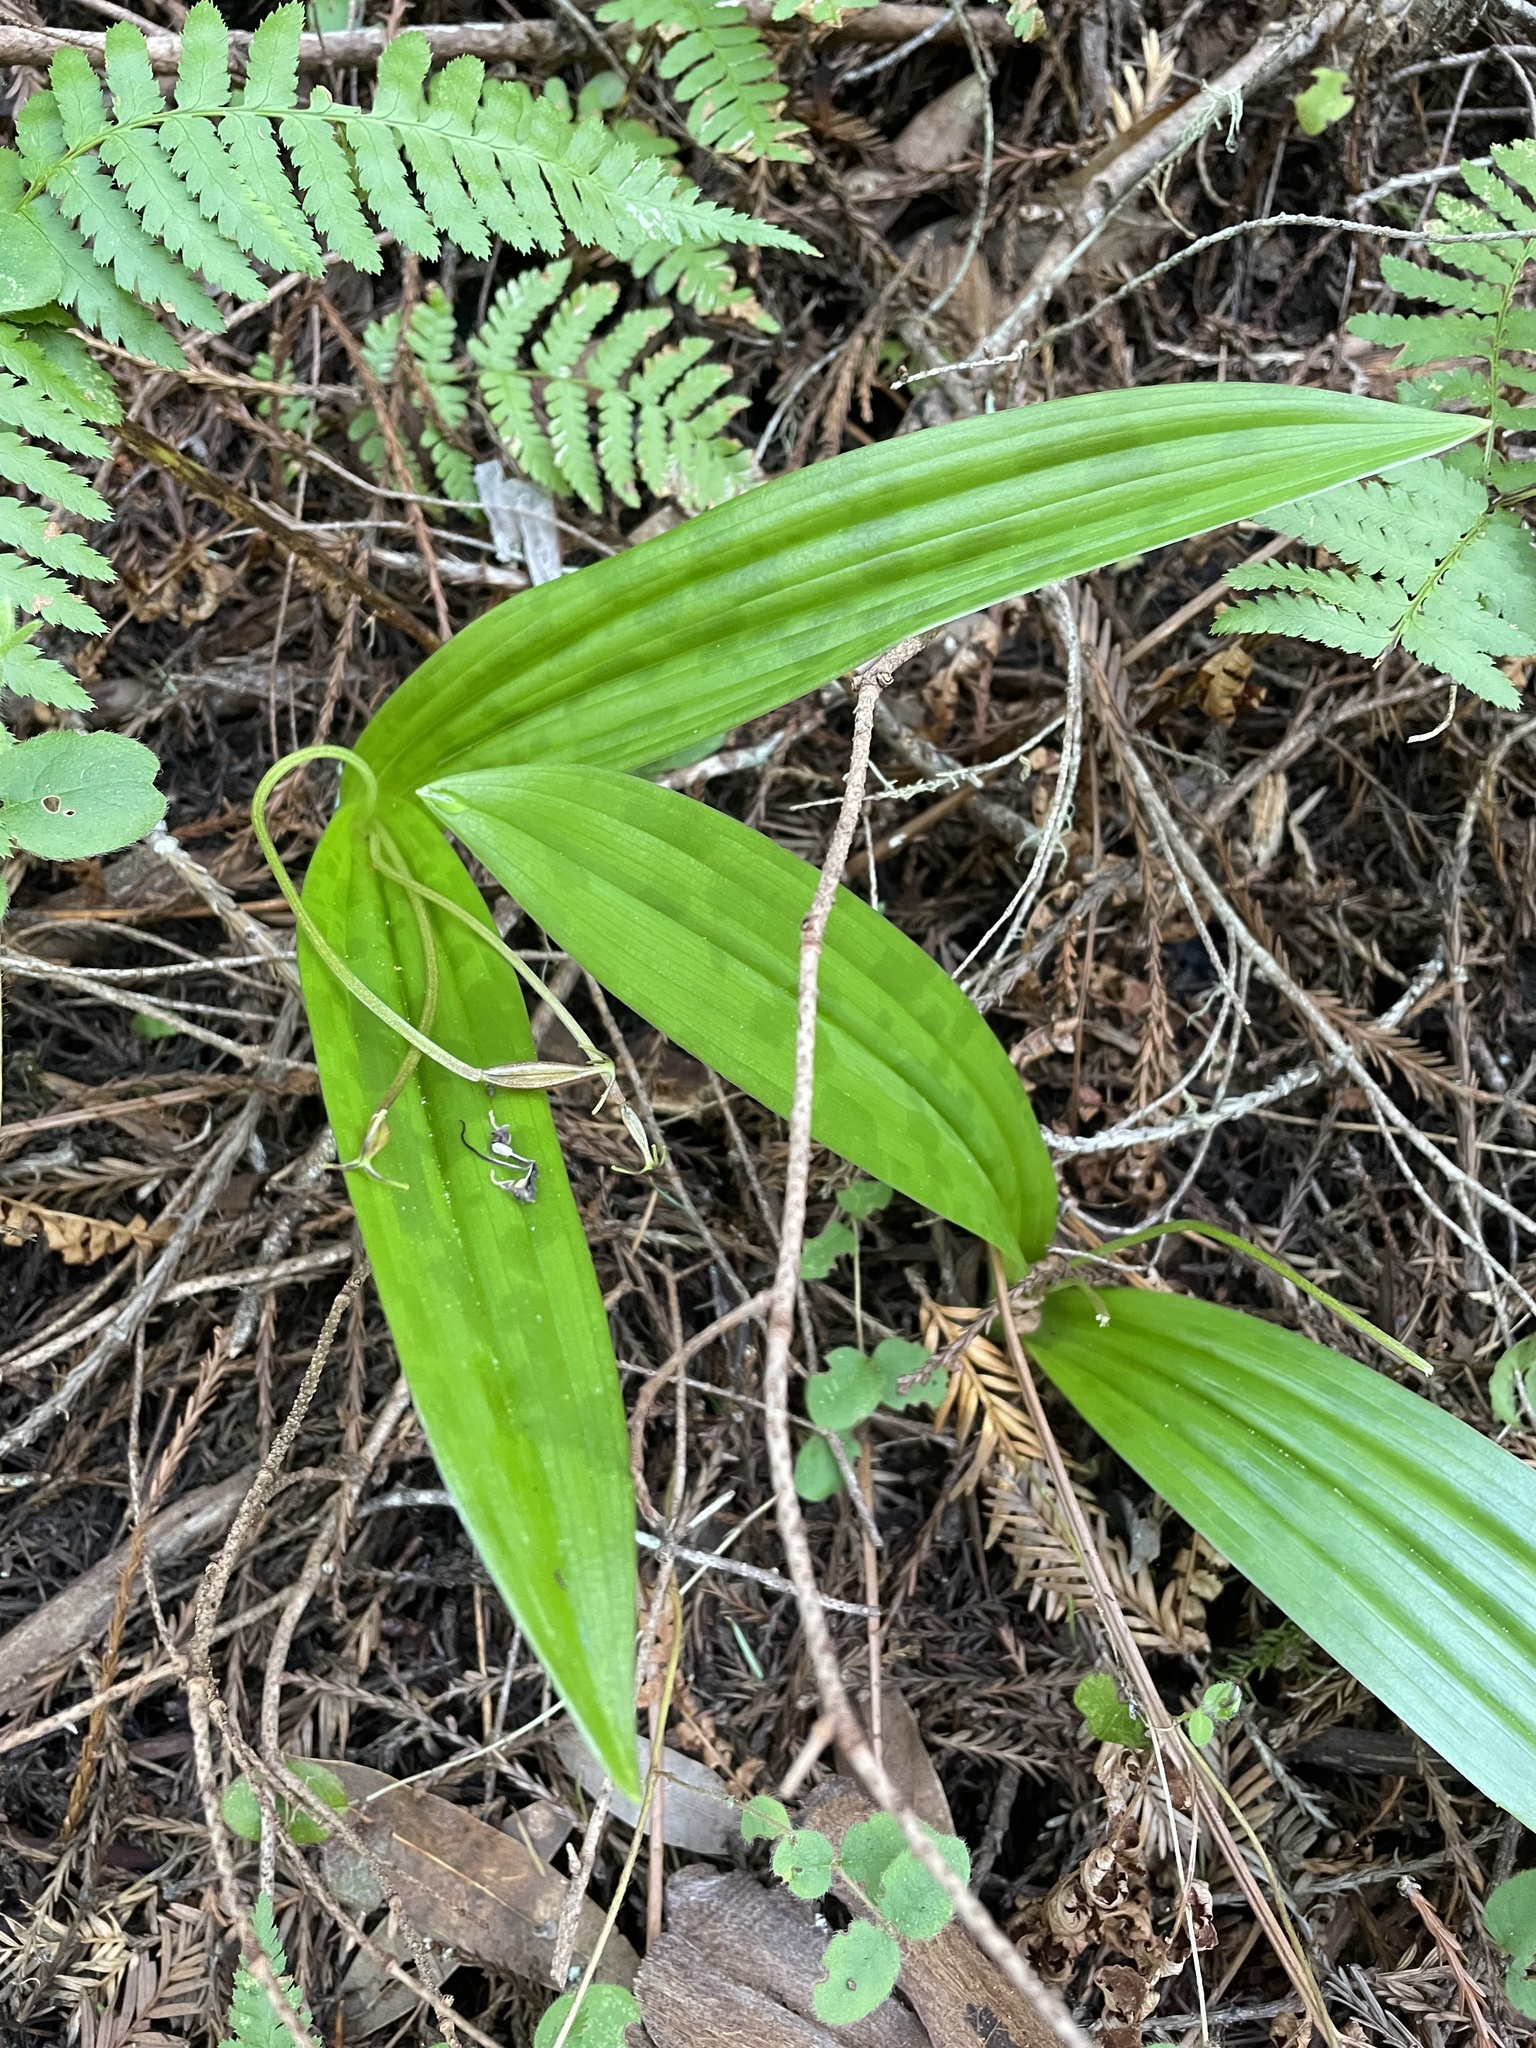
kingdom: Plantae
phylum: Tracheophyta
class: Liliopsida
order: Liliales
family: Liliaceae
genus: Scoliopus
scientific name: Scoliopus bigelovii
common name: Foetid adder's-tongue
